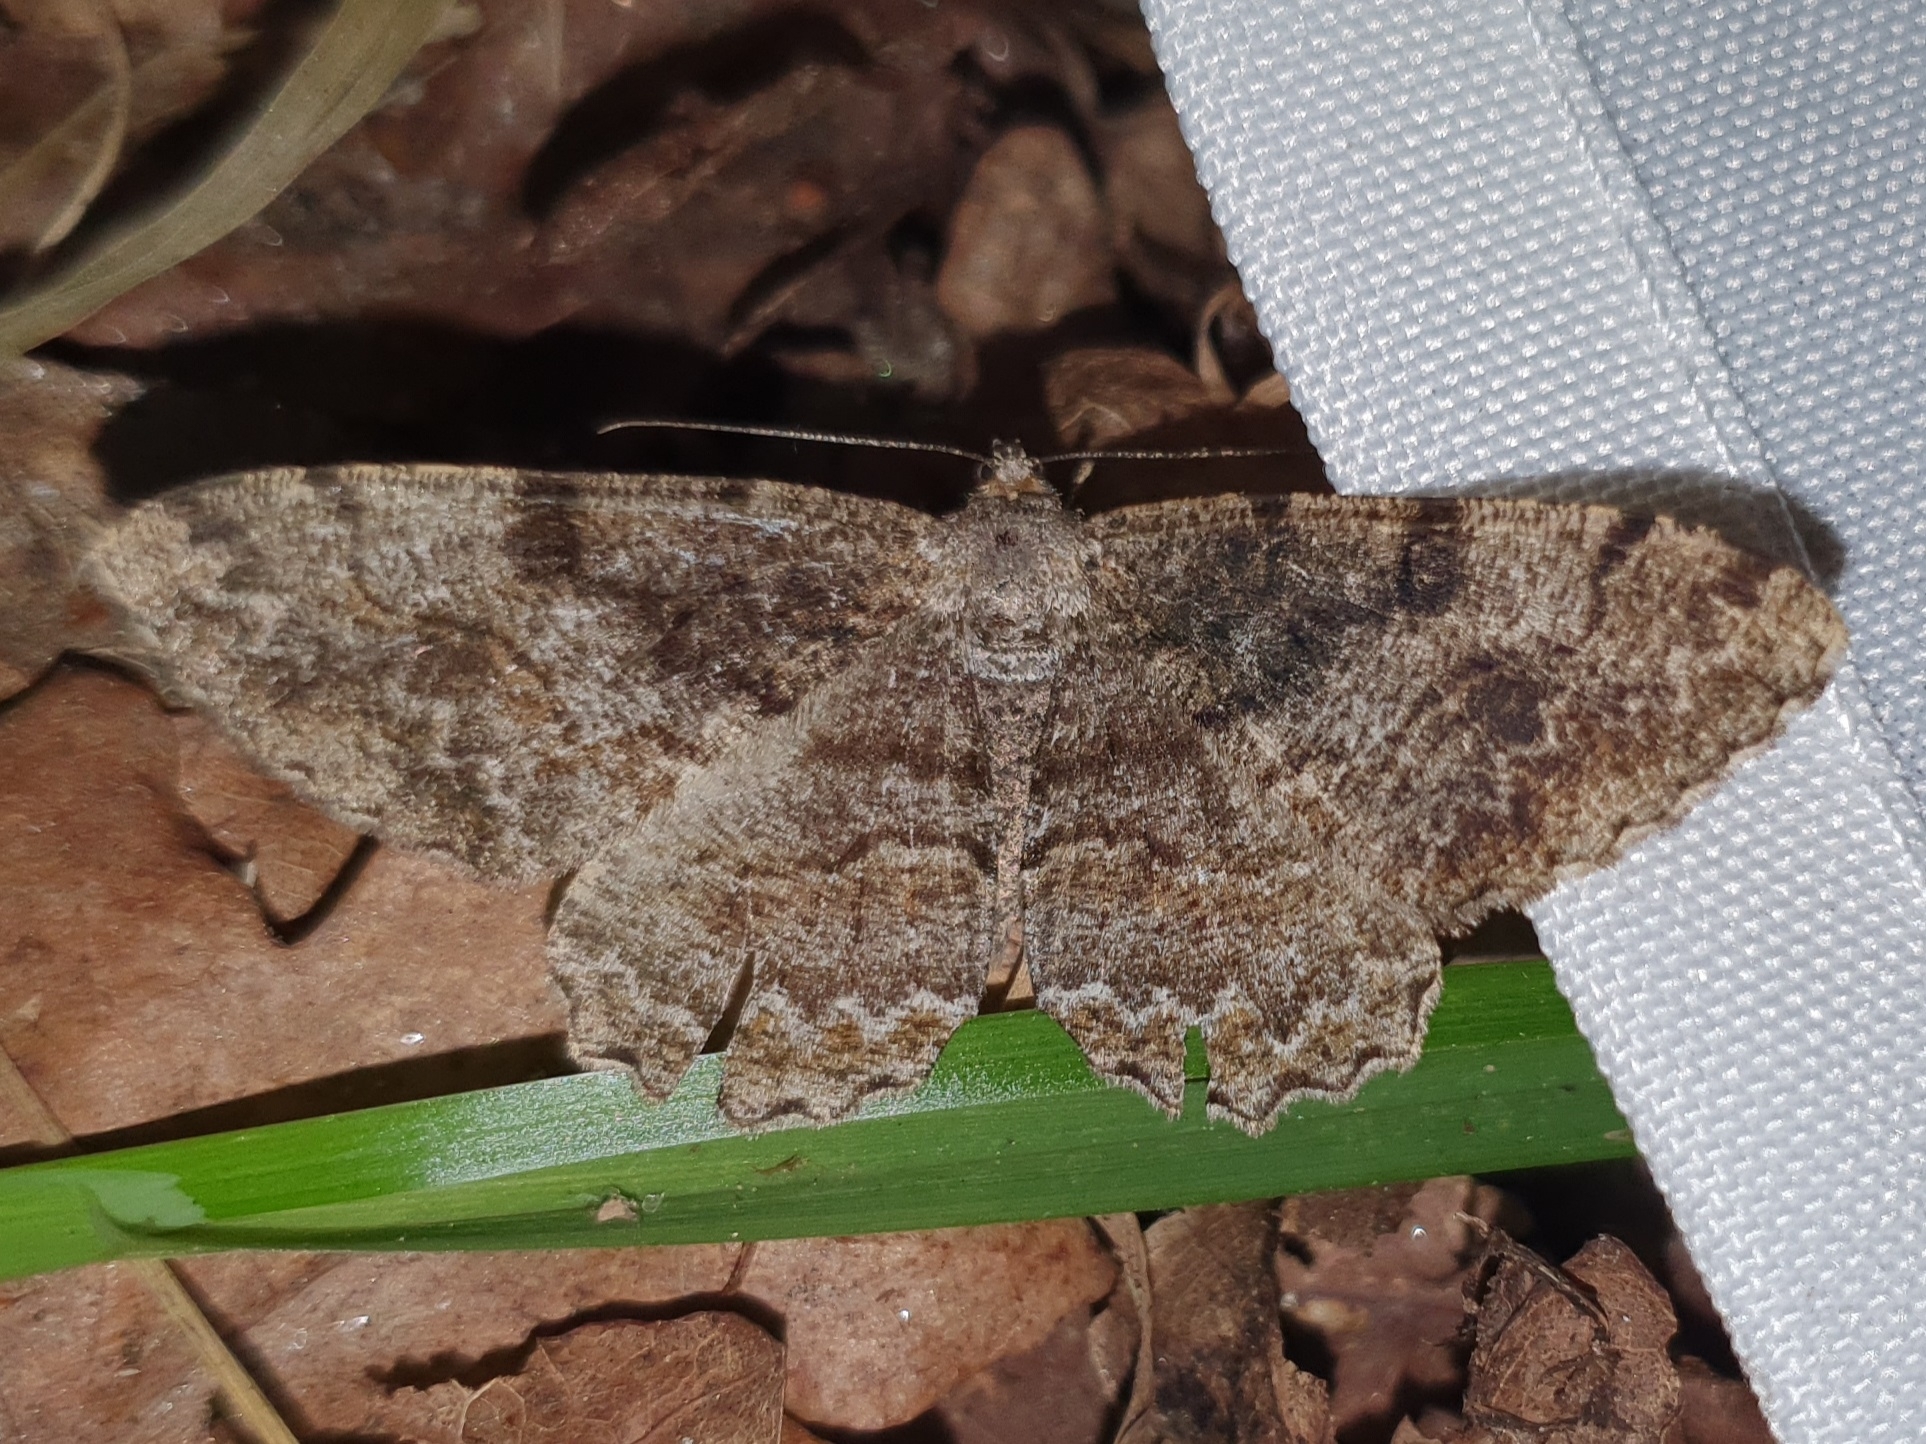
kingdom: Animalia
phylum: Arthropoda
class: Insecta
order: Lepidoptera
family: Geometridae
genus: Alcis
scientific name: Alcis repandata
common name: Mottled beauty
